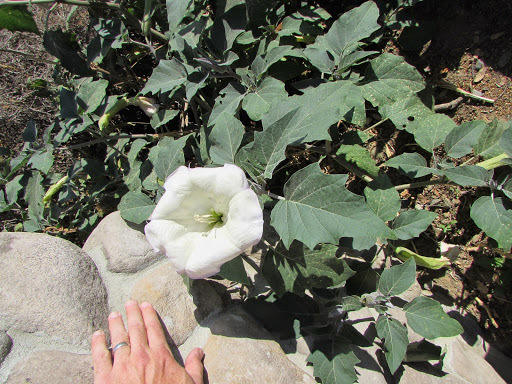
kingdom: Plantae
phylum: Tracheophyta
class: Magnoliopsida
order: Solanales
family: Solanaceae
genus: Datura
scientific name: Datura wrightii
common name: Sacred thorn-apple
